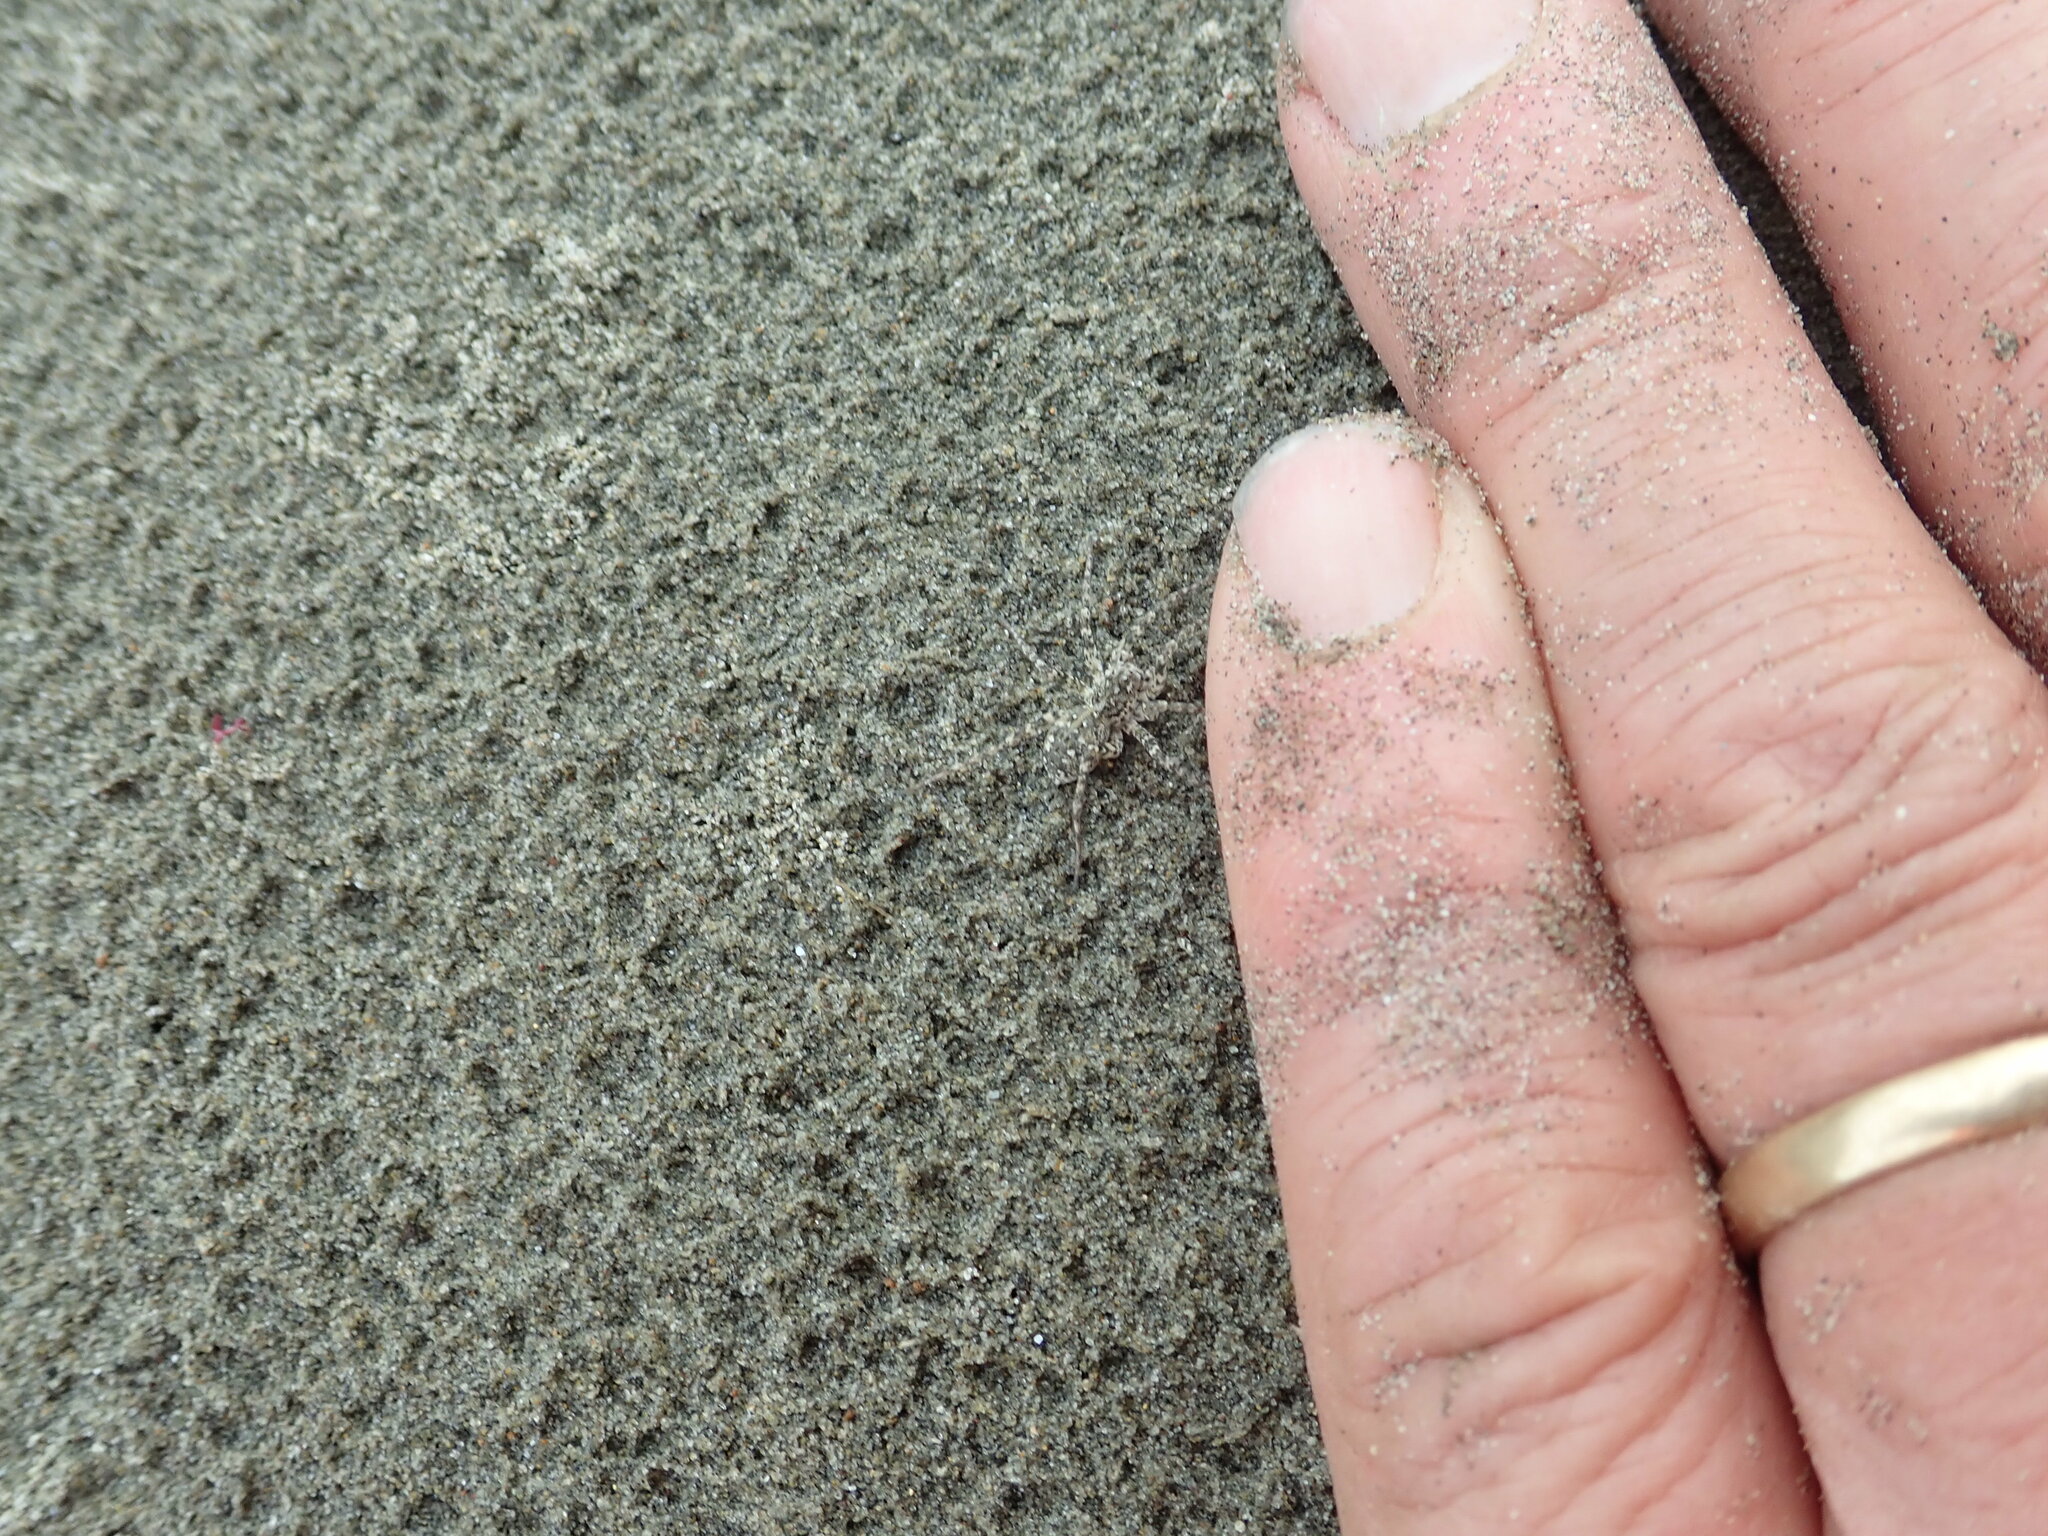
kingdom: Animalia
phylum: Arthropoda
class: Arachnida
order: Araneae
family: Lycosidae
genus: Anoteropsis
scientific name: Anoteropsis litoralis
